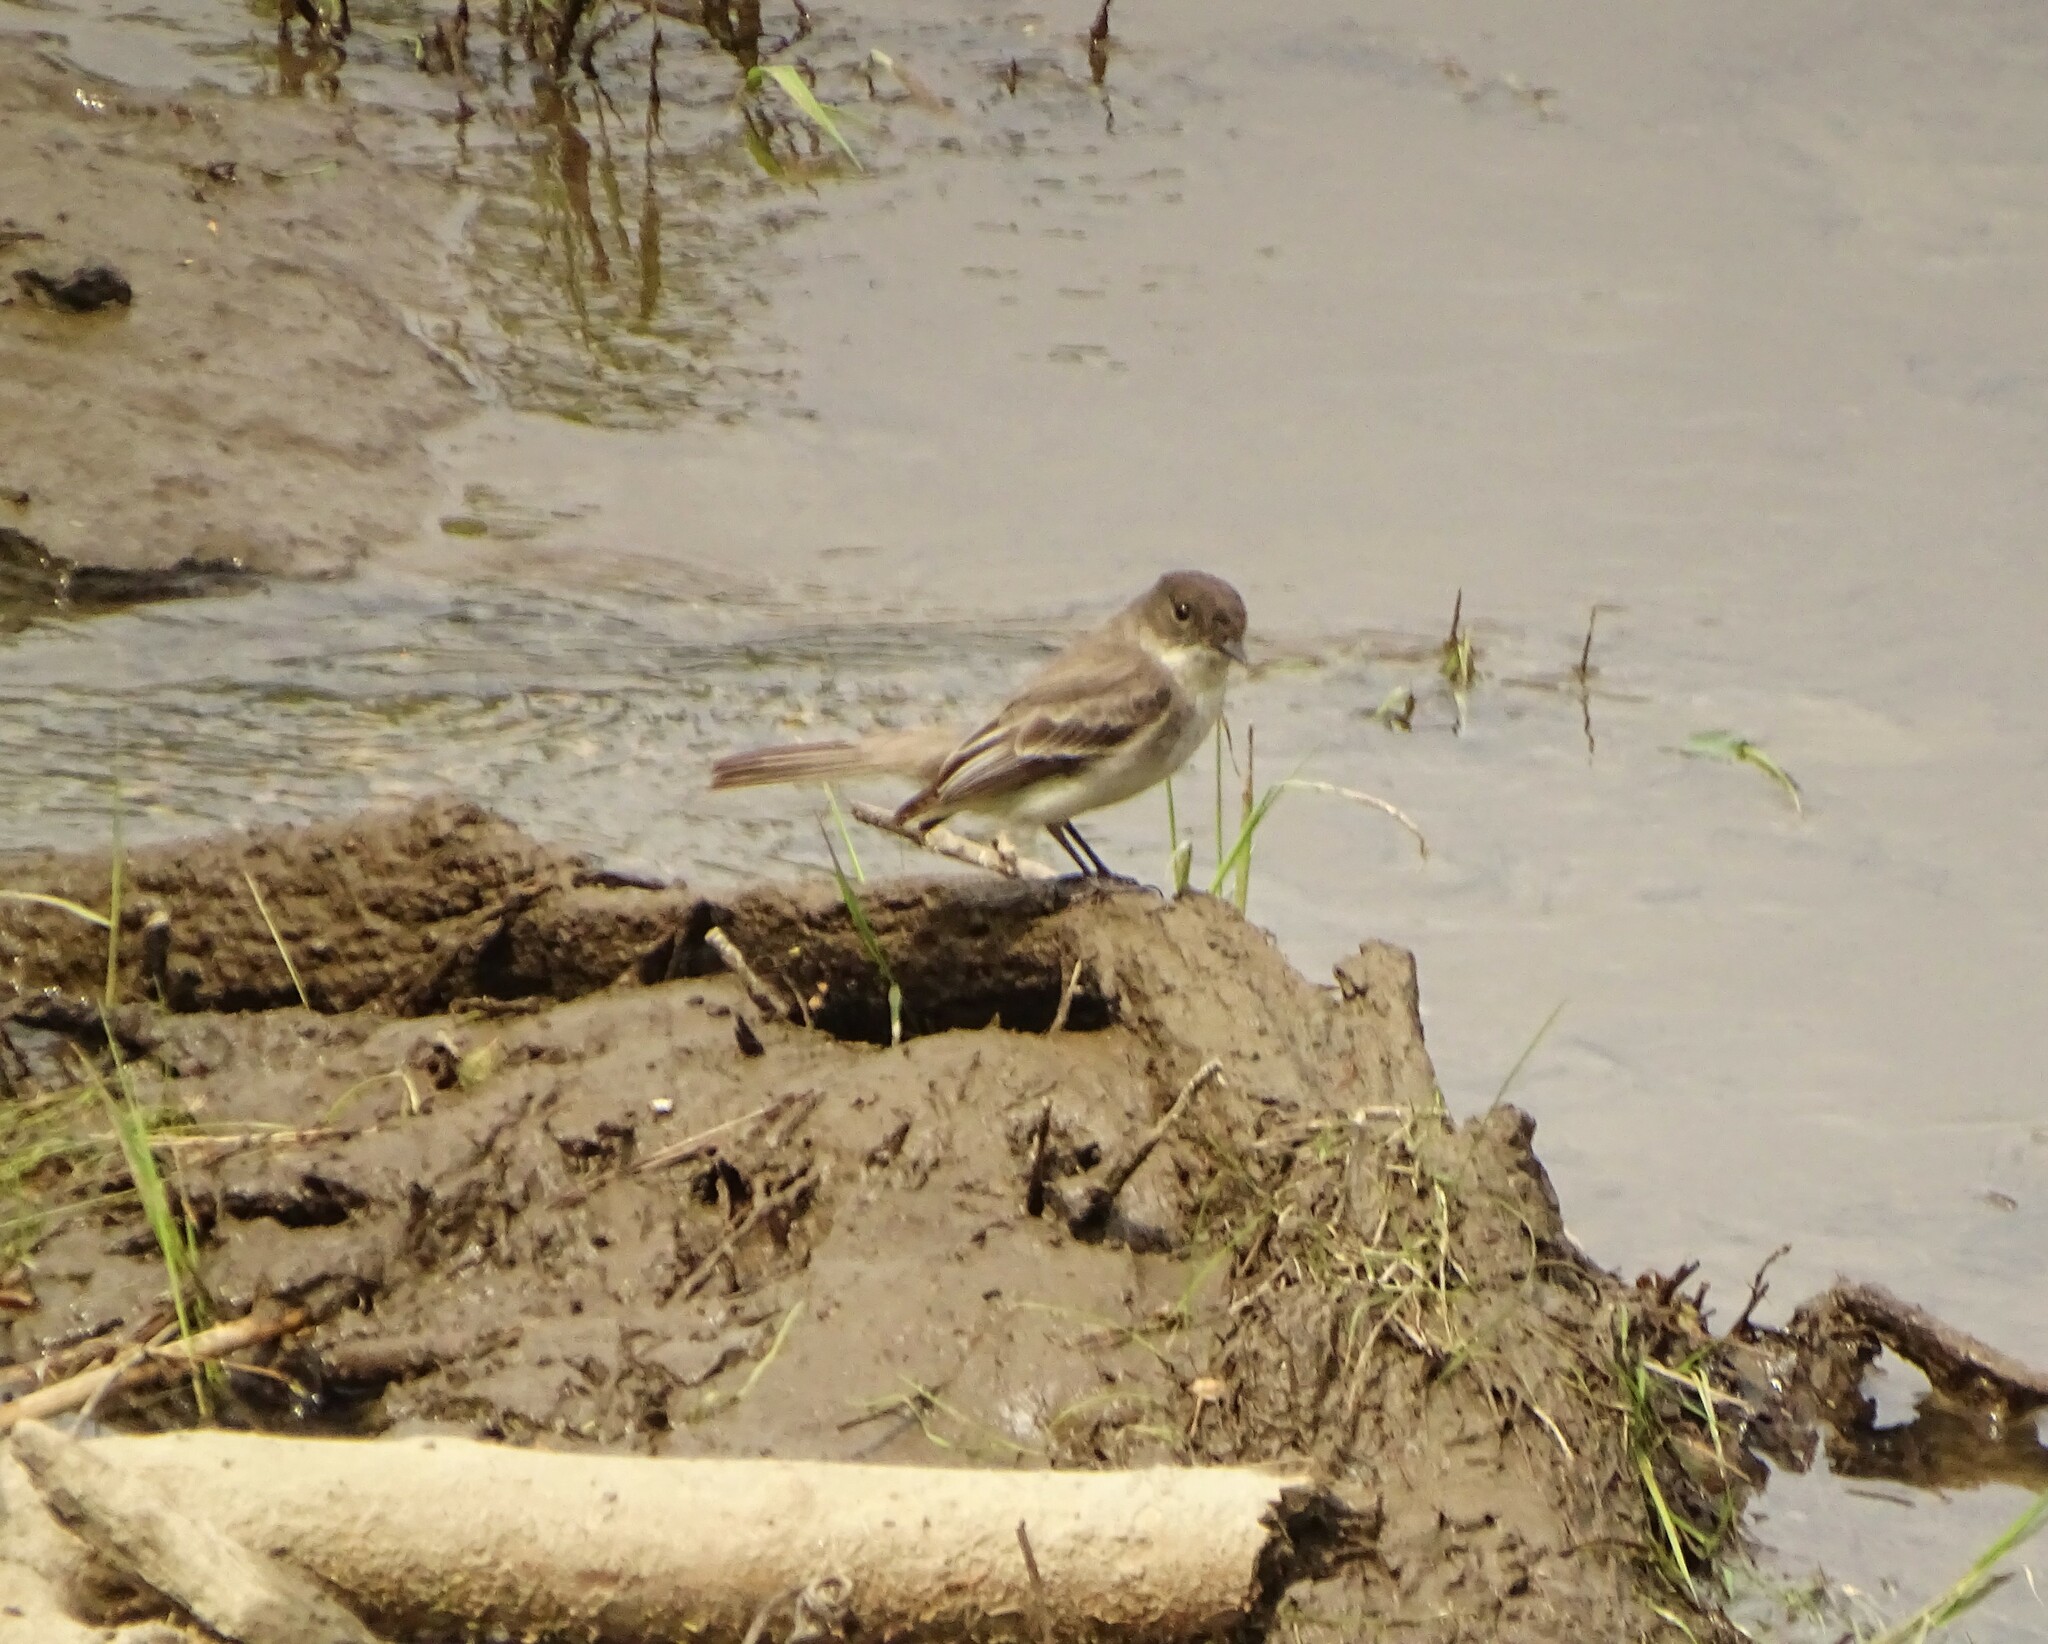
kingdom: Animalia
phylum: Chordata
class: Aves
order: Passeriformes
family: Tyrannidae
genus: Sayornis
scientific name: Sayornis phoebe
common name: Eastern phoebe
